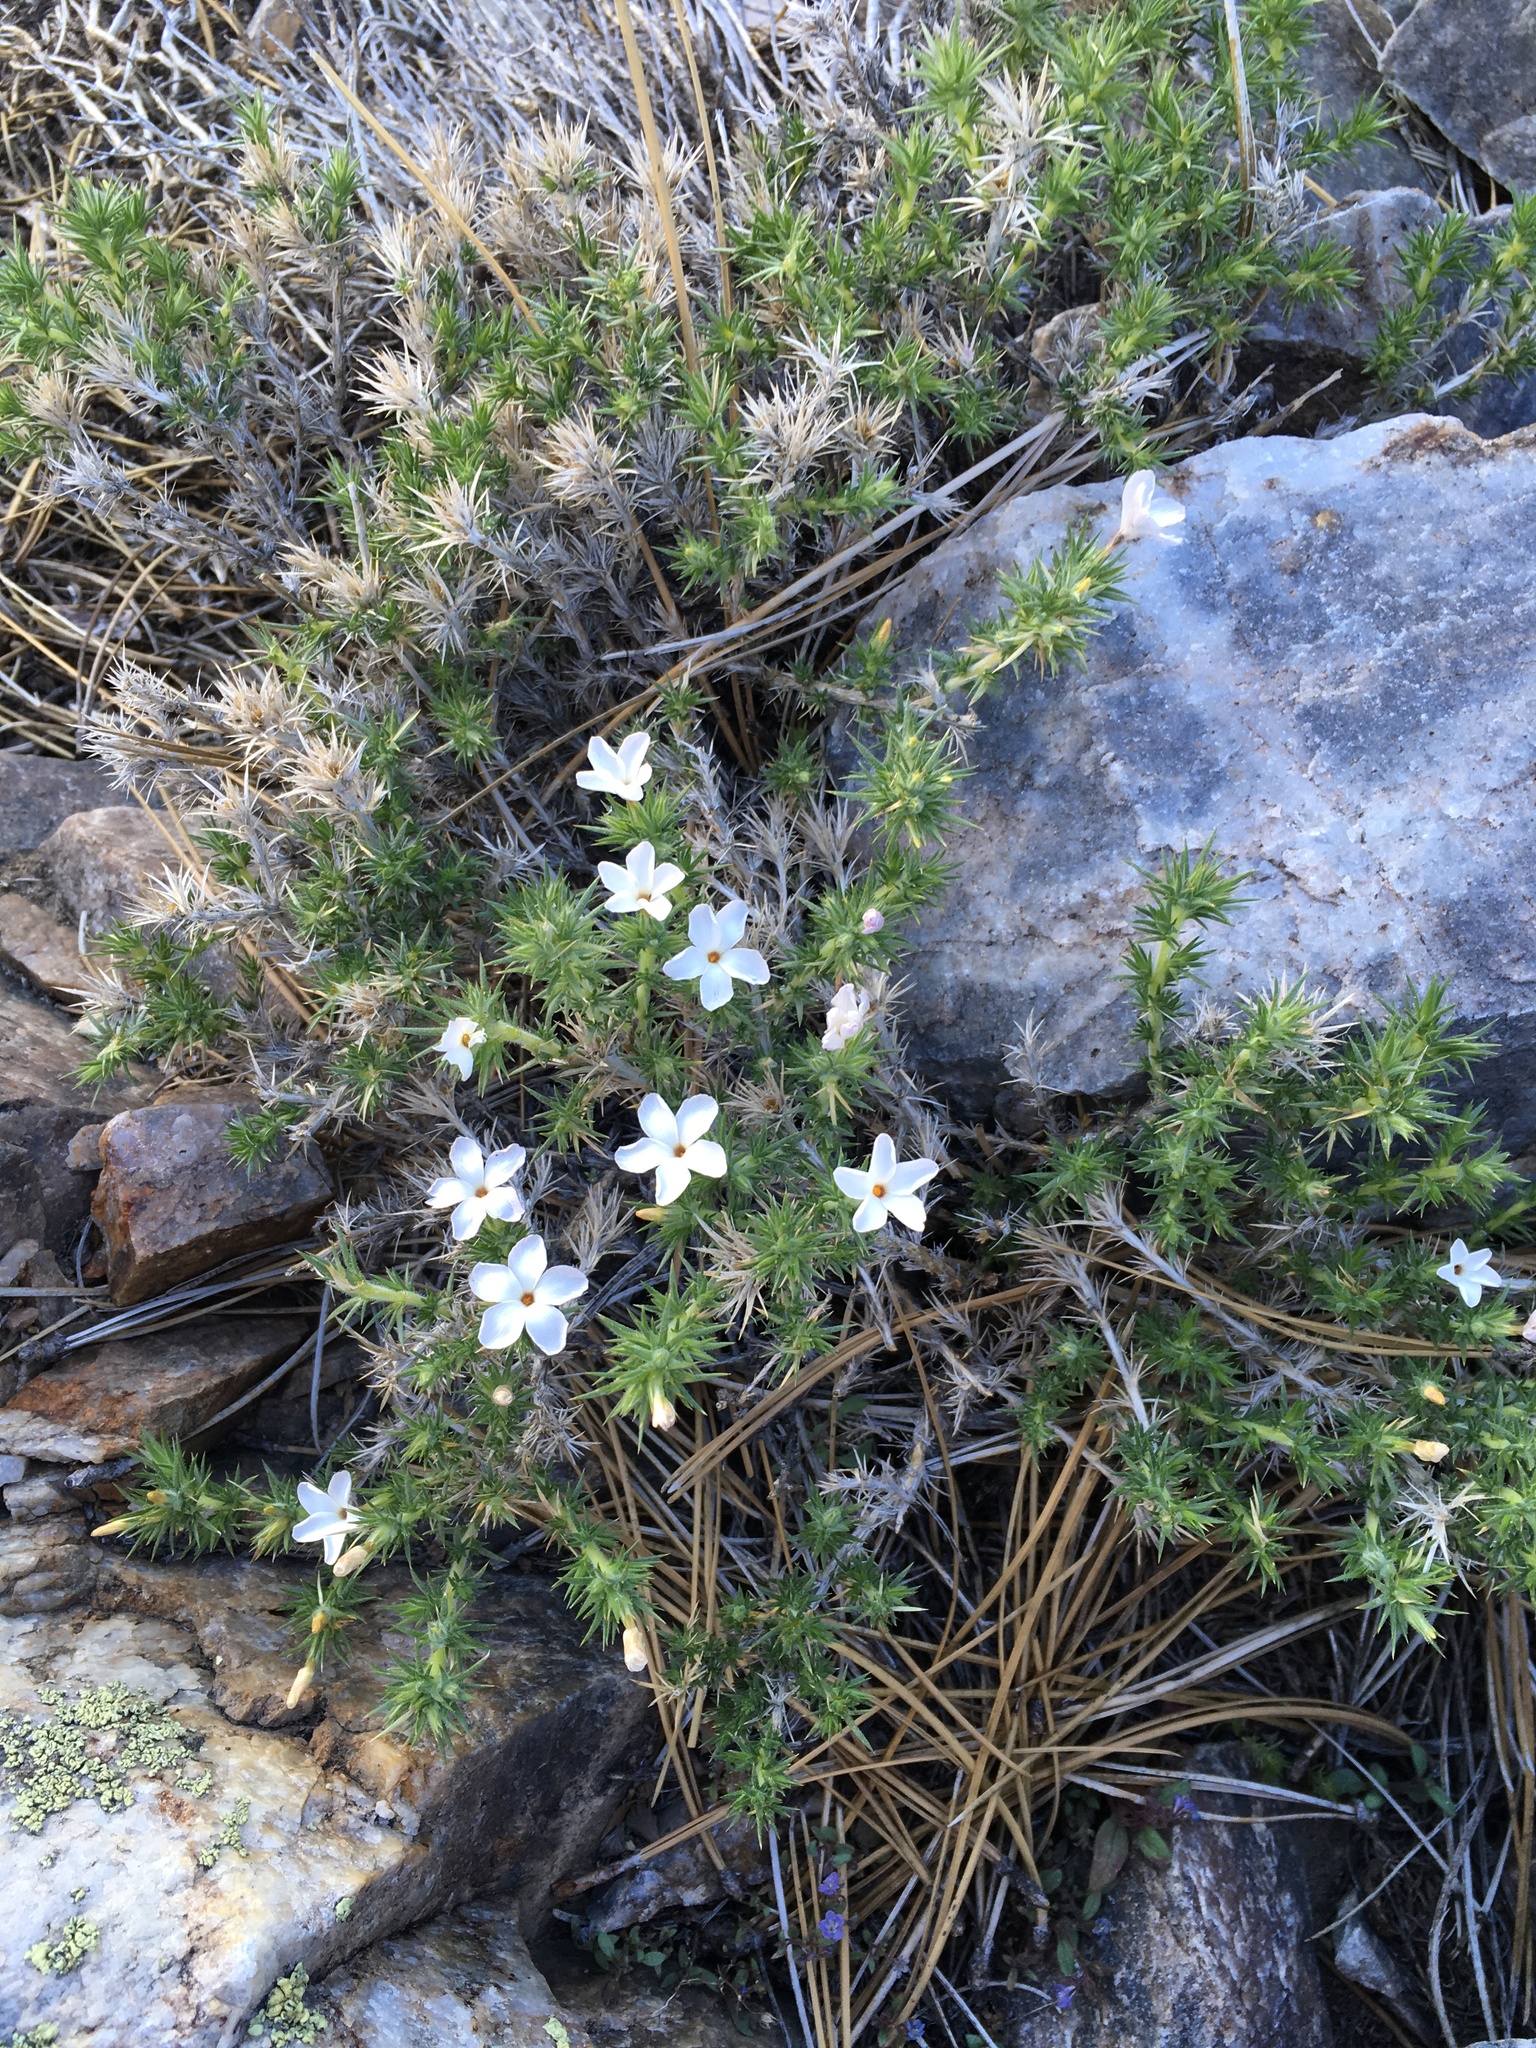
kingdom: Plantae
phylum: Tracheophyta
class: Magnoliopsida
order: Ericales
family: Polemoniaceae
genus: Linanthus
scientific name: Linanthus pungens
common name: Granite prickly phlox
